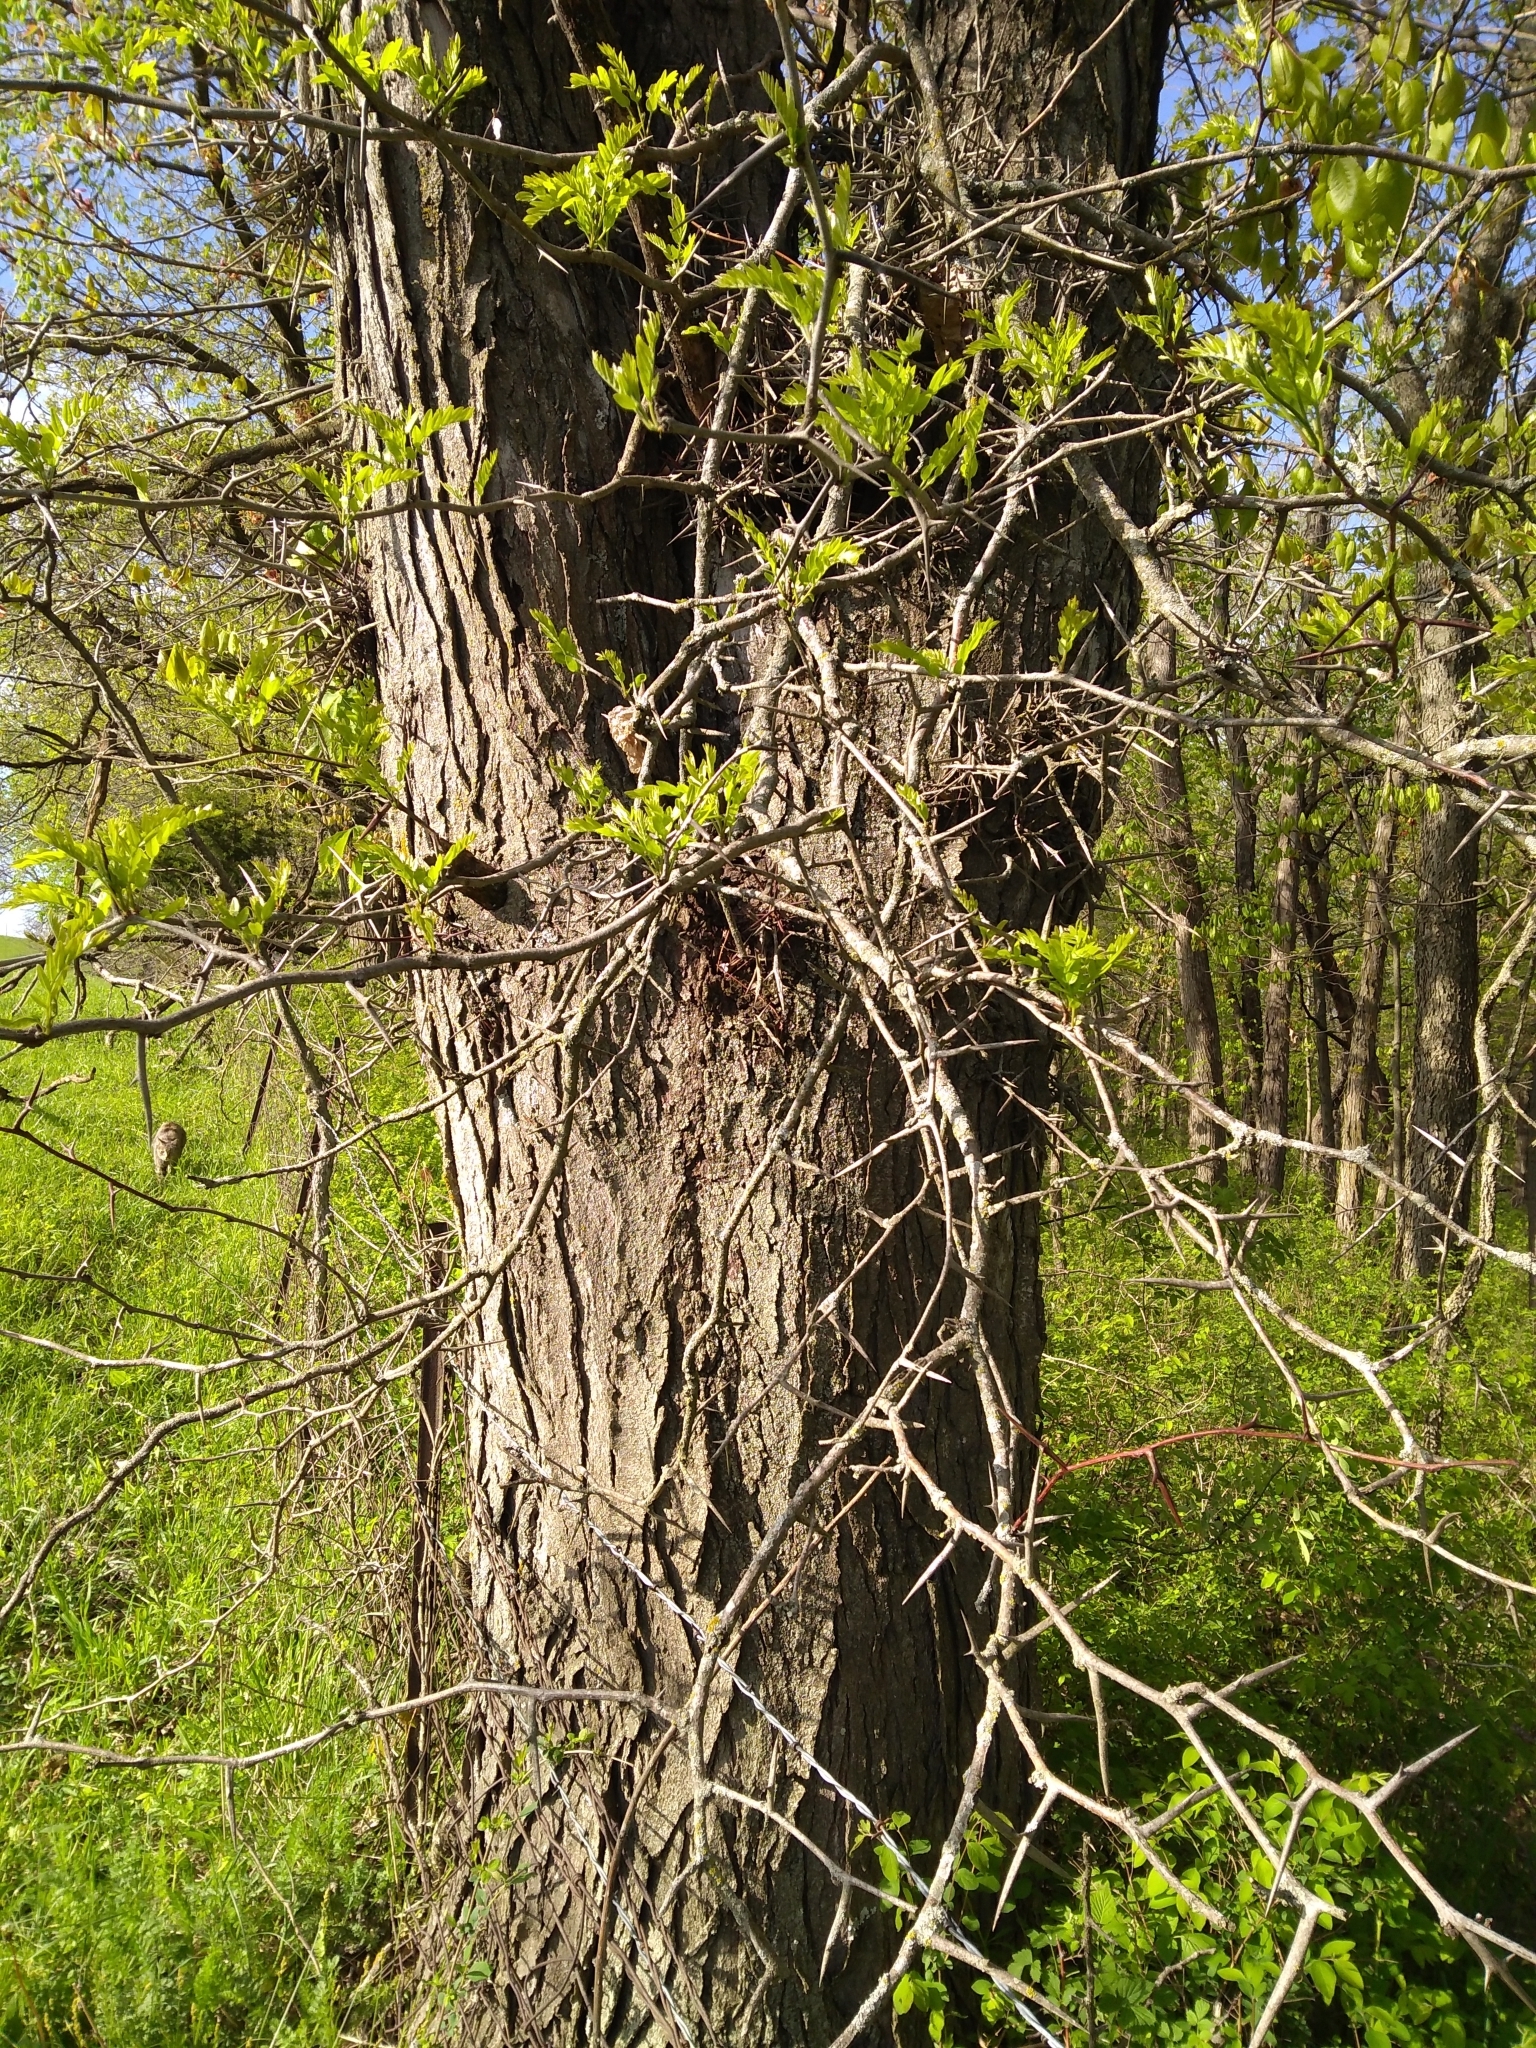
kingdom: Plantae
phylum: Tracheophyta
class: Magnoliopsida
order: Fabales
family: Fabaceae
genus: Gleditsia
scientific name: Gleditsia triacanthos
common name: Common honeylocust
